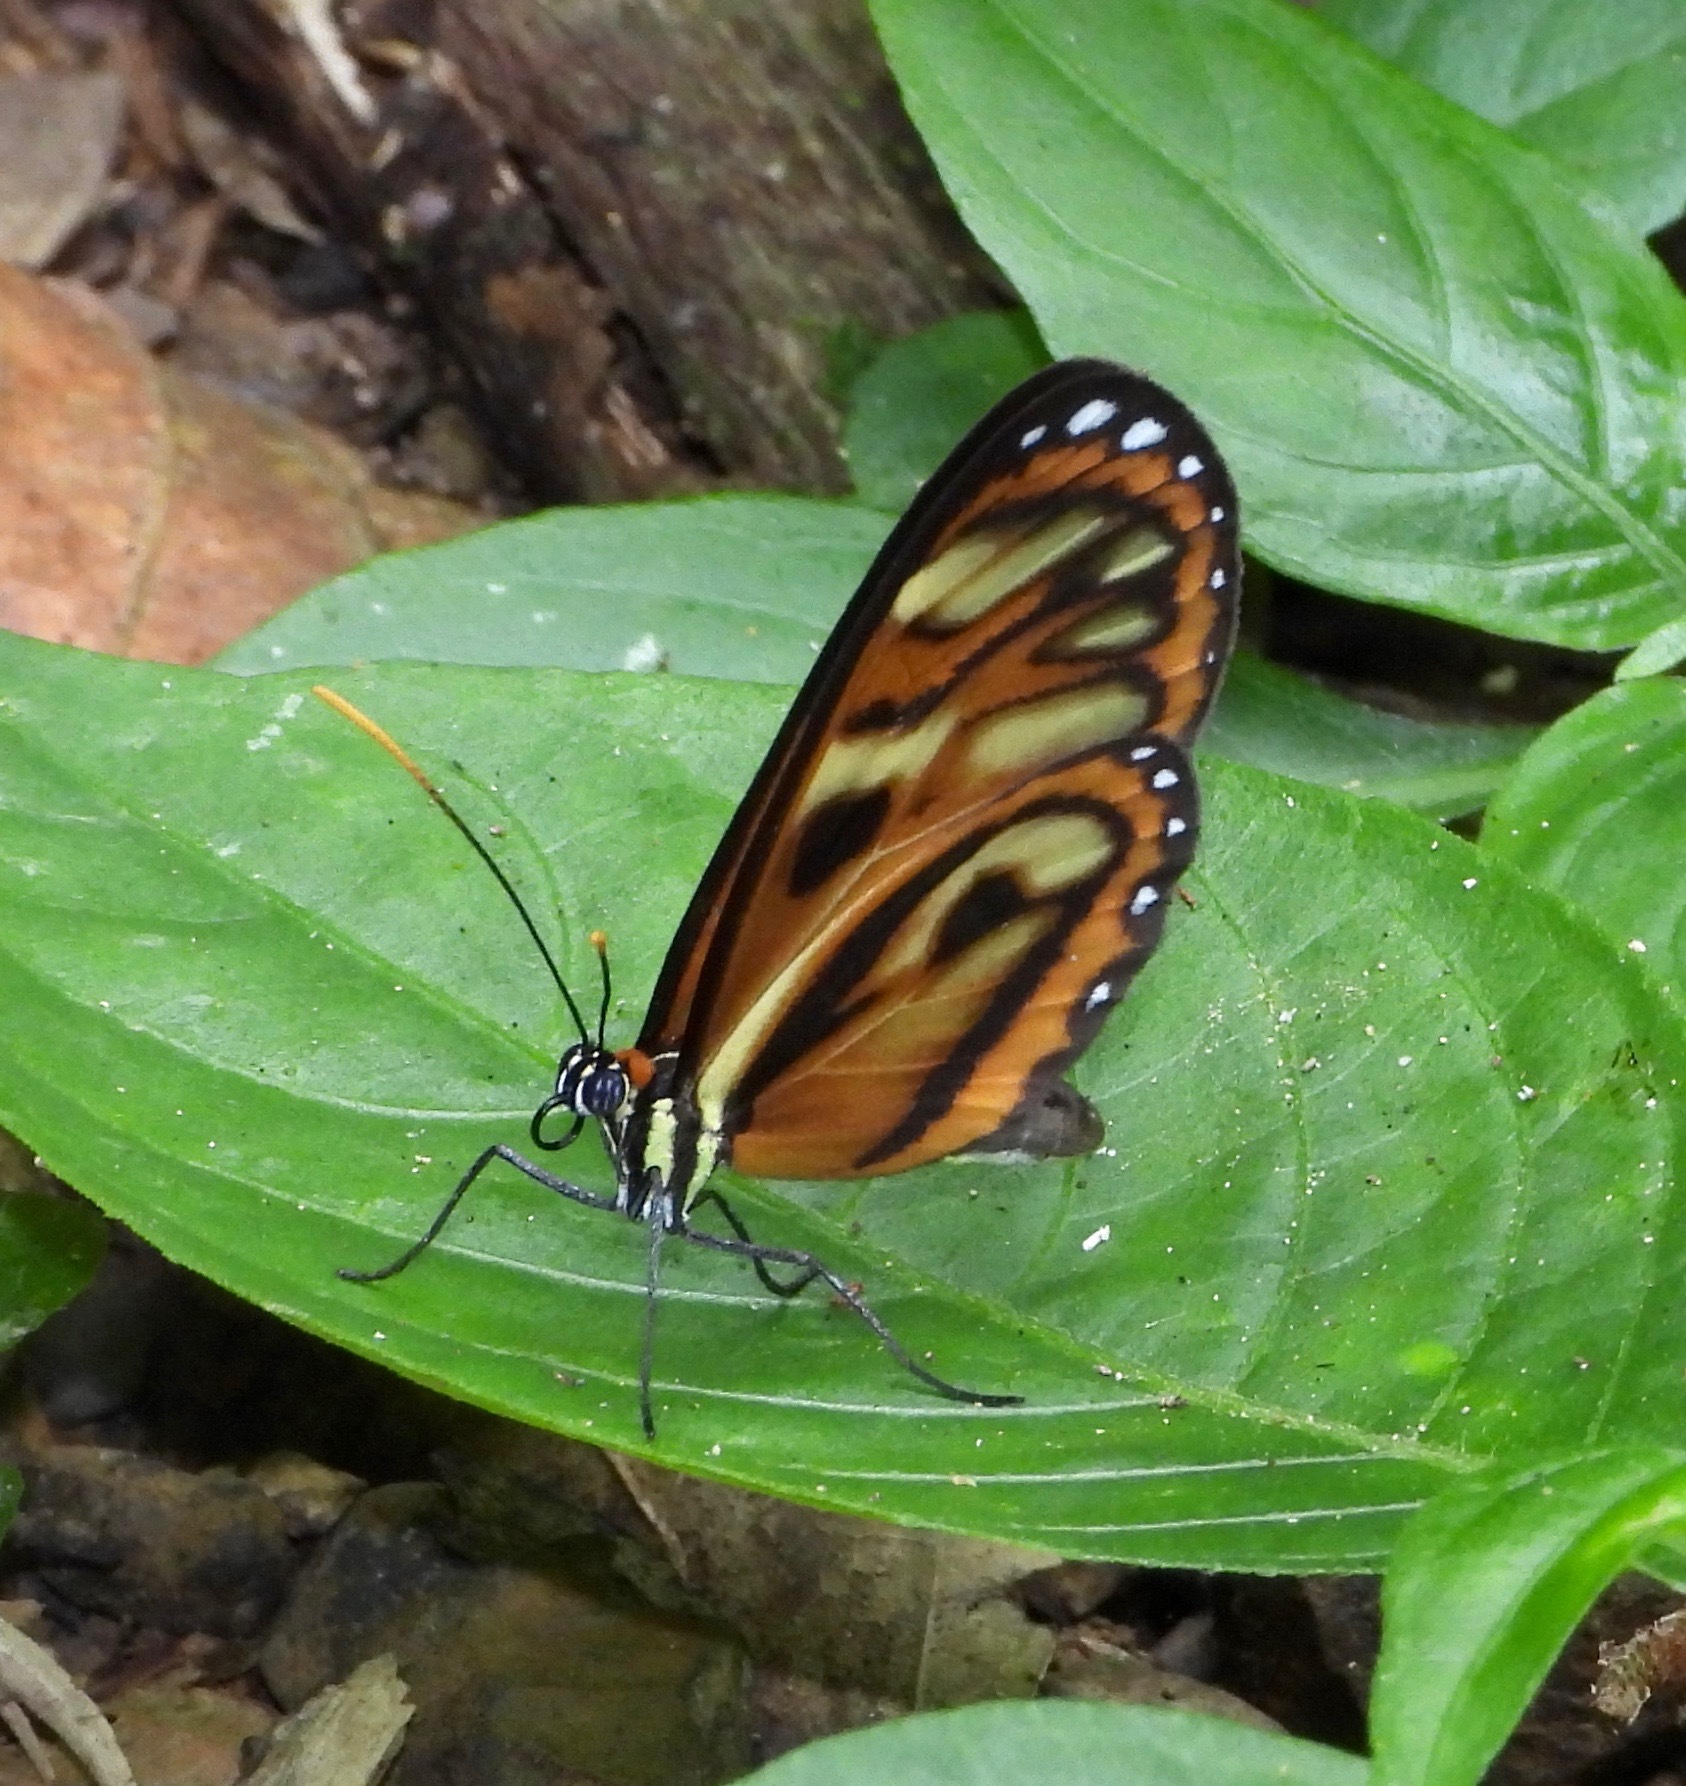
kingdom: Animalia
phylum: Arthropoda
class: Insecta
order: Lepidoptera
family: Nymphalidae
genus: Ithomia
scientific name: Ithomia iphianassa
